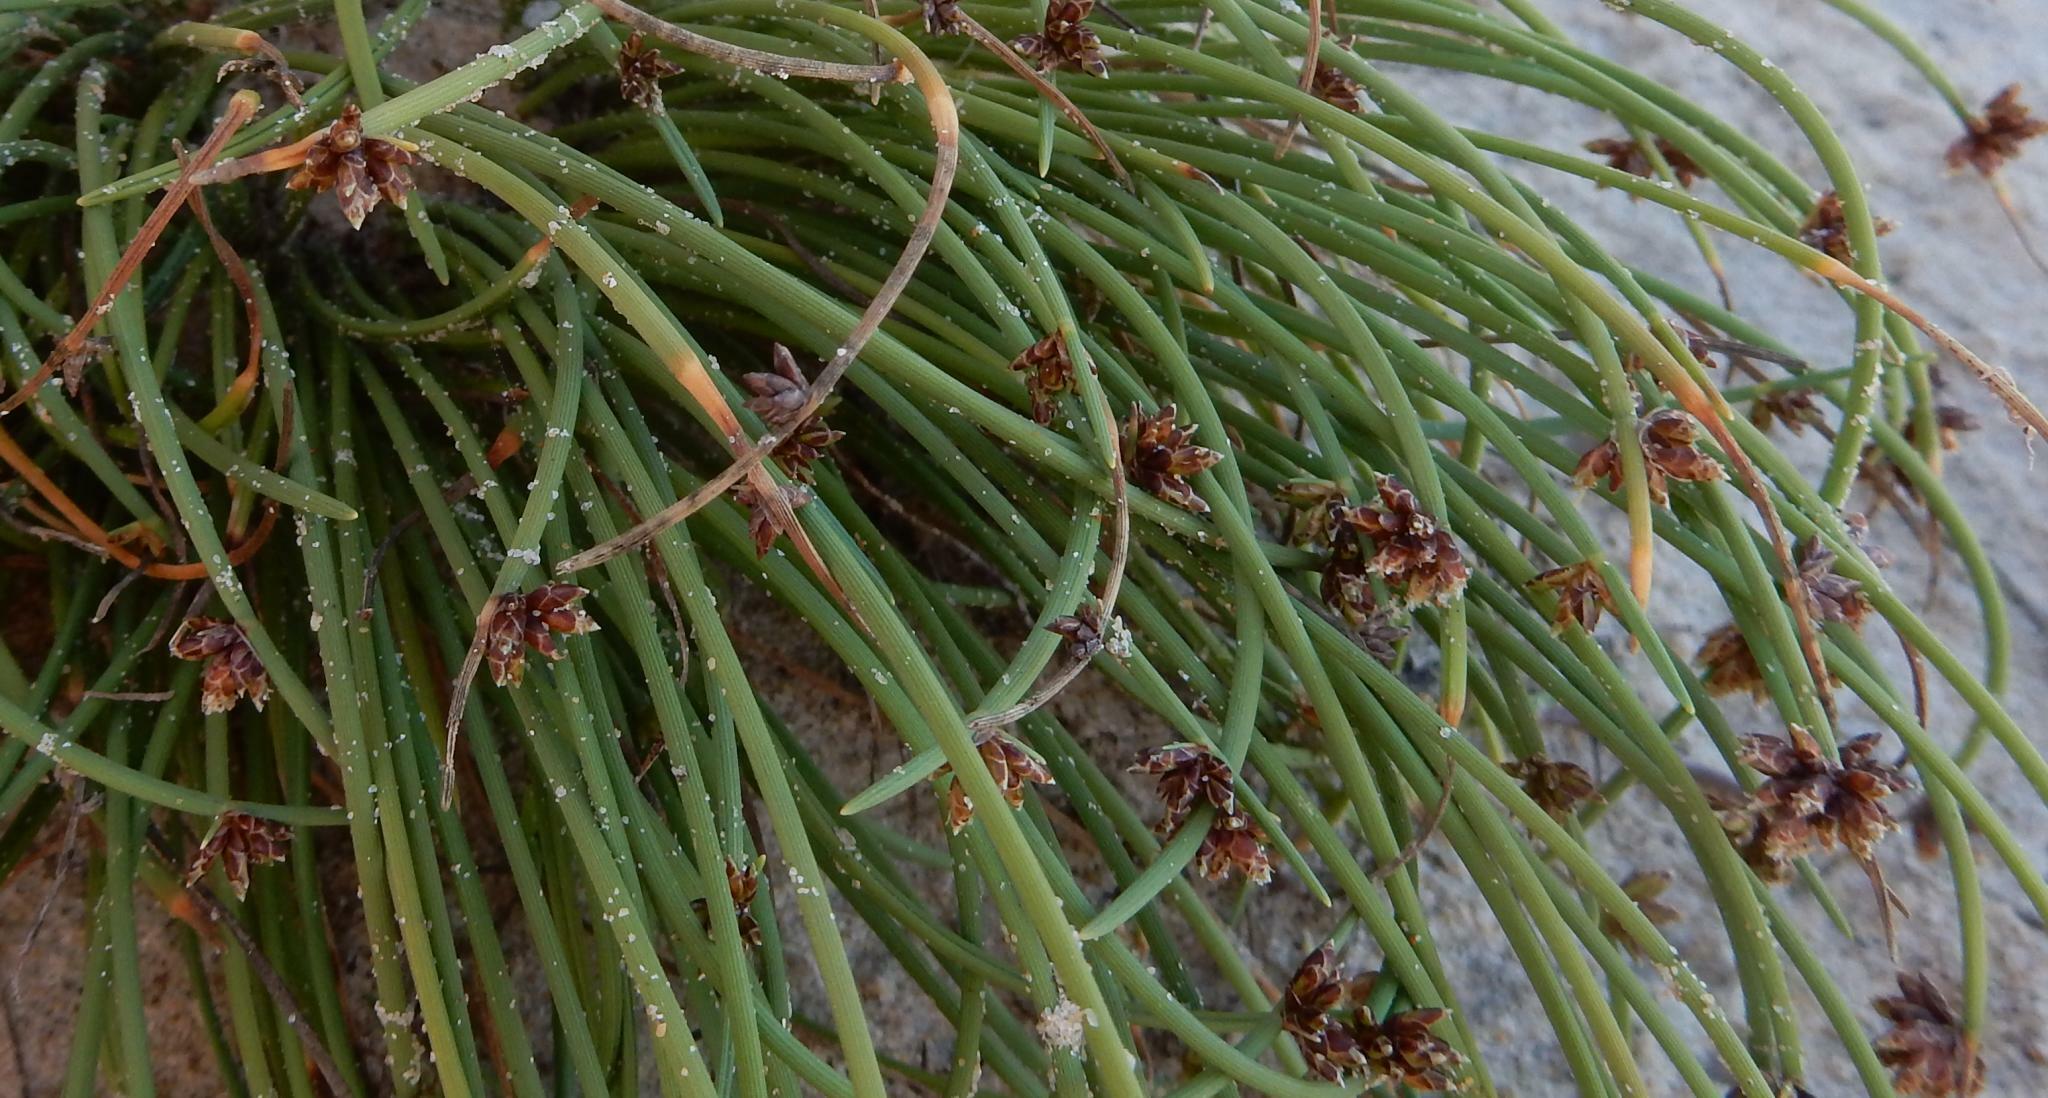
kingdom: Plantae
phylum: Tracheophyta
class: Liliopsida
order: Poales
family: Cyperaceae
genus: Ficinia
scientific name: Ficinia lateralis
